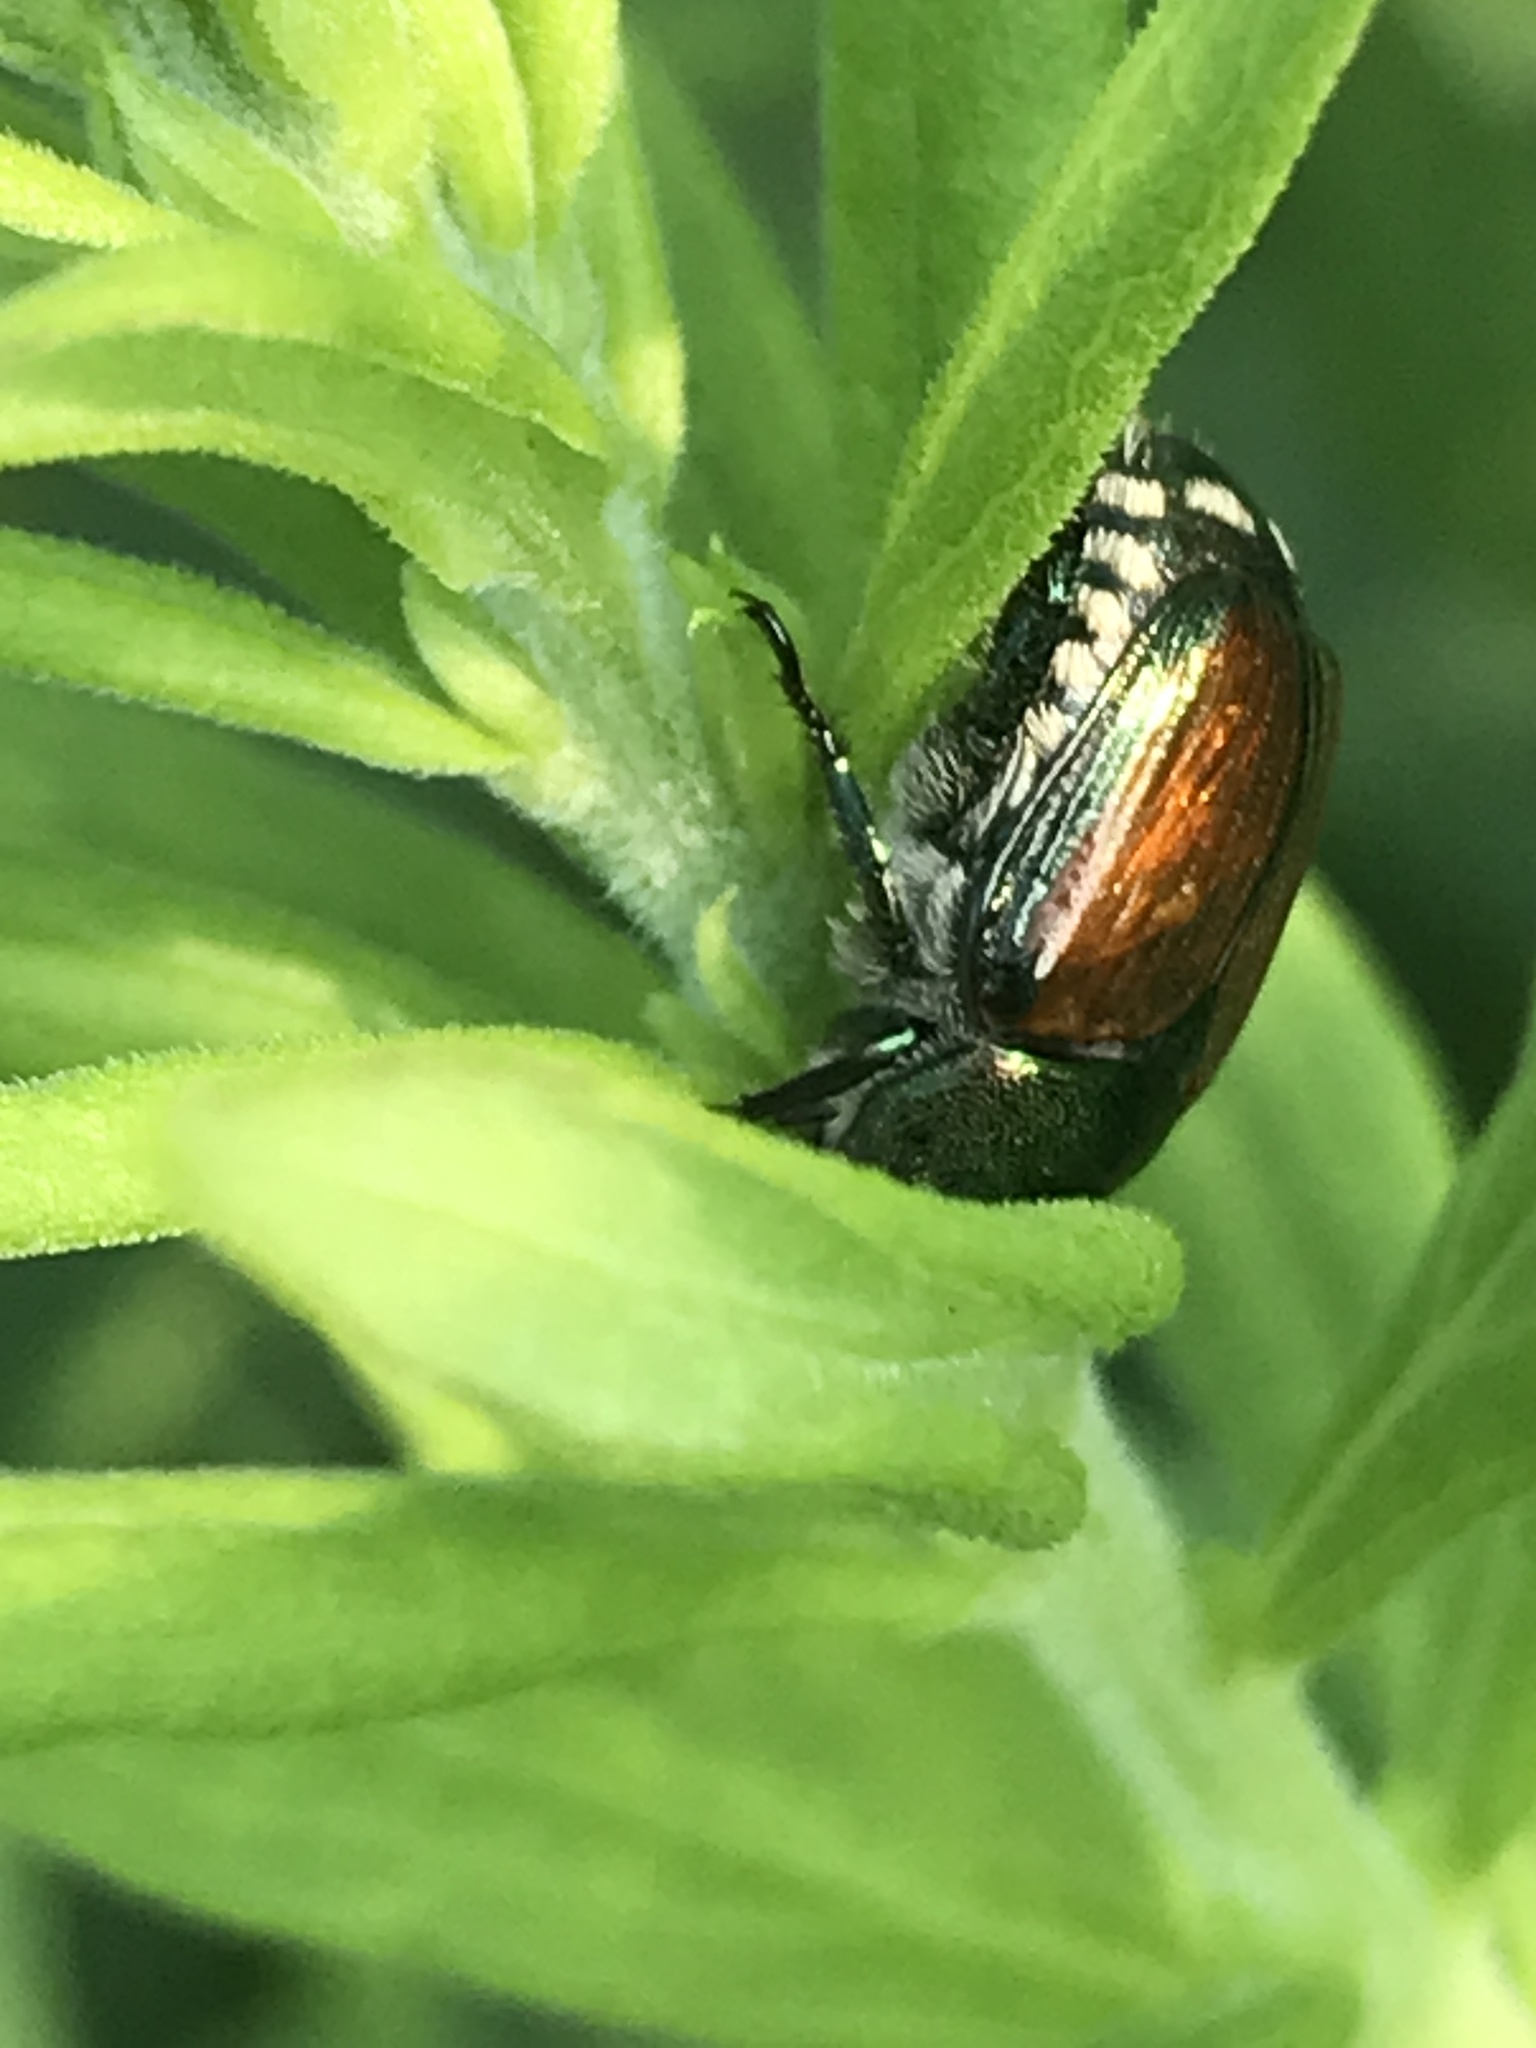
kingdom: Animalia
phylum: Arthropoda
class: Insecta
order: Coleoptera
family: Scarabaeidae
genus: Popillia
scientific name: Popillia japonica
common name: Japanese beetle
